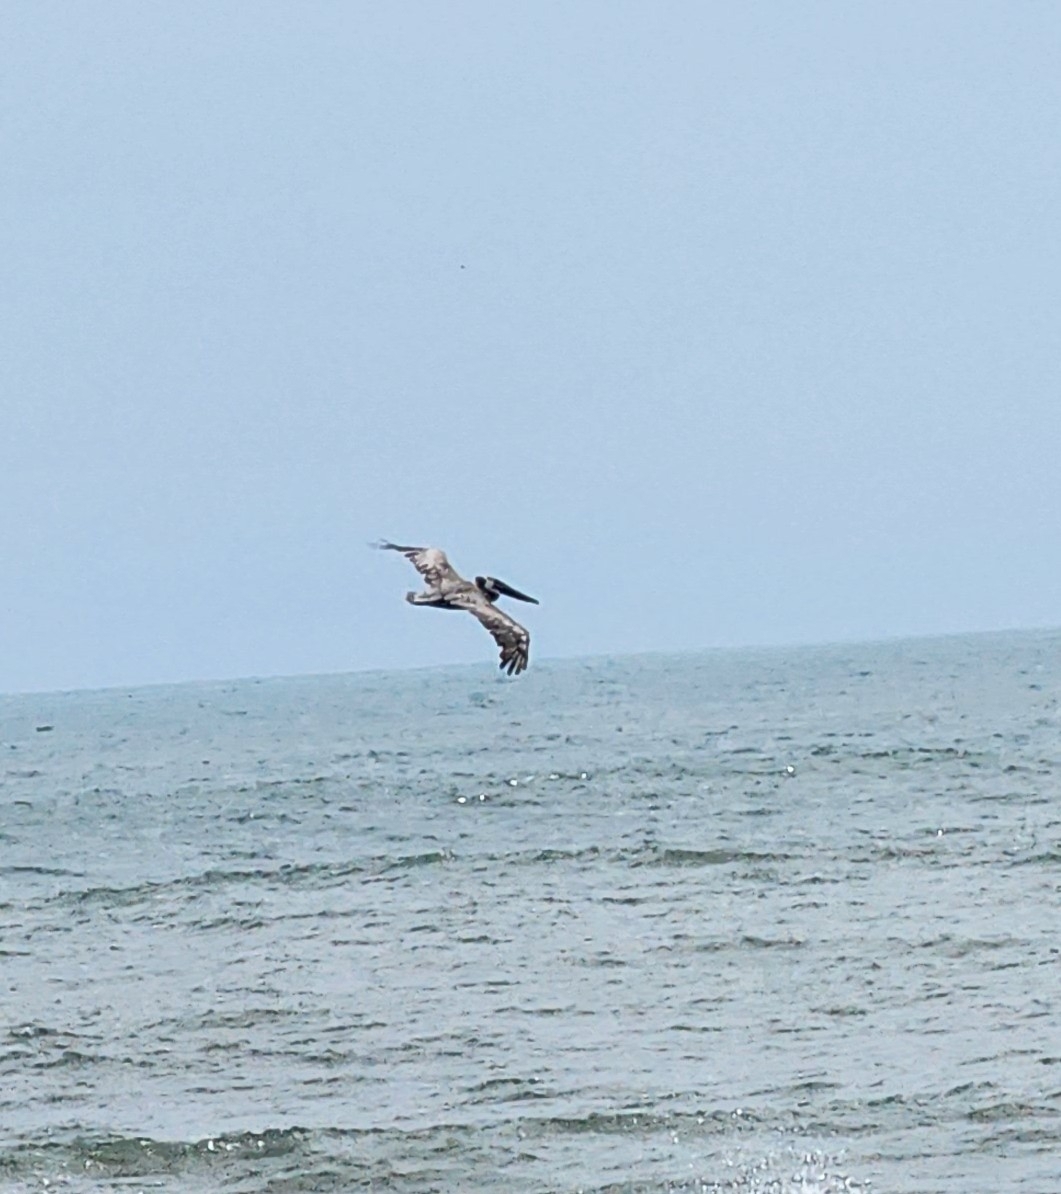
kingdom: Animalia
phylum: Chordata
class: Aves
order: Pelecaniformes
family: Pelecanidae
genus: Pelecanus
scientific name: Pelecanus occidentalis
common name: Brown pelican
